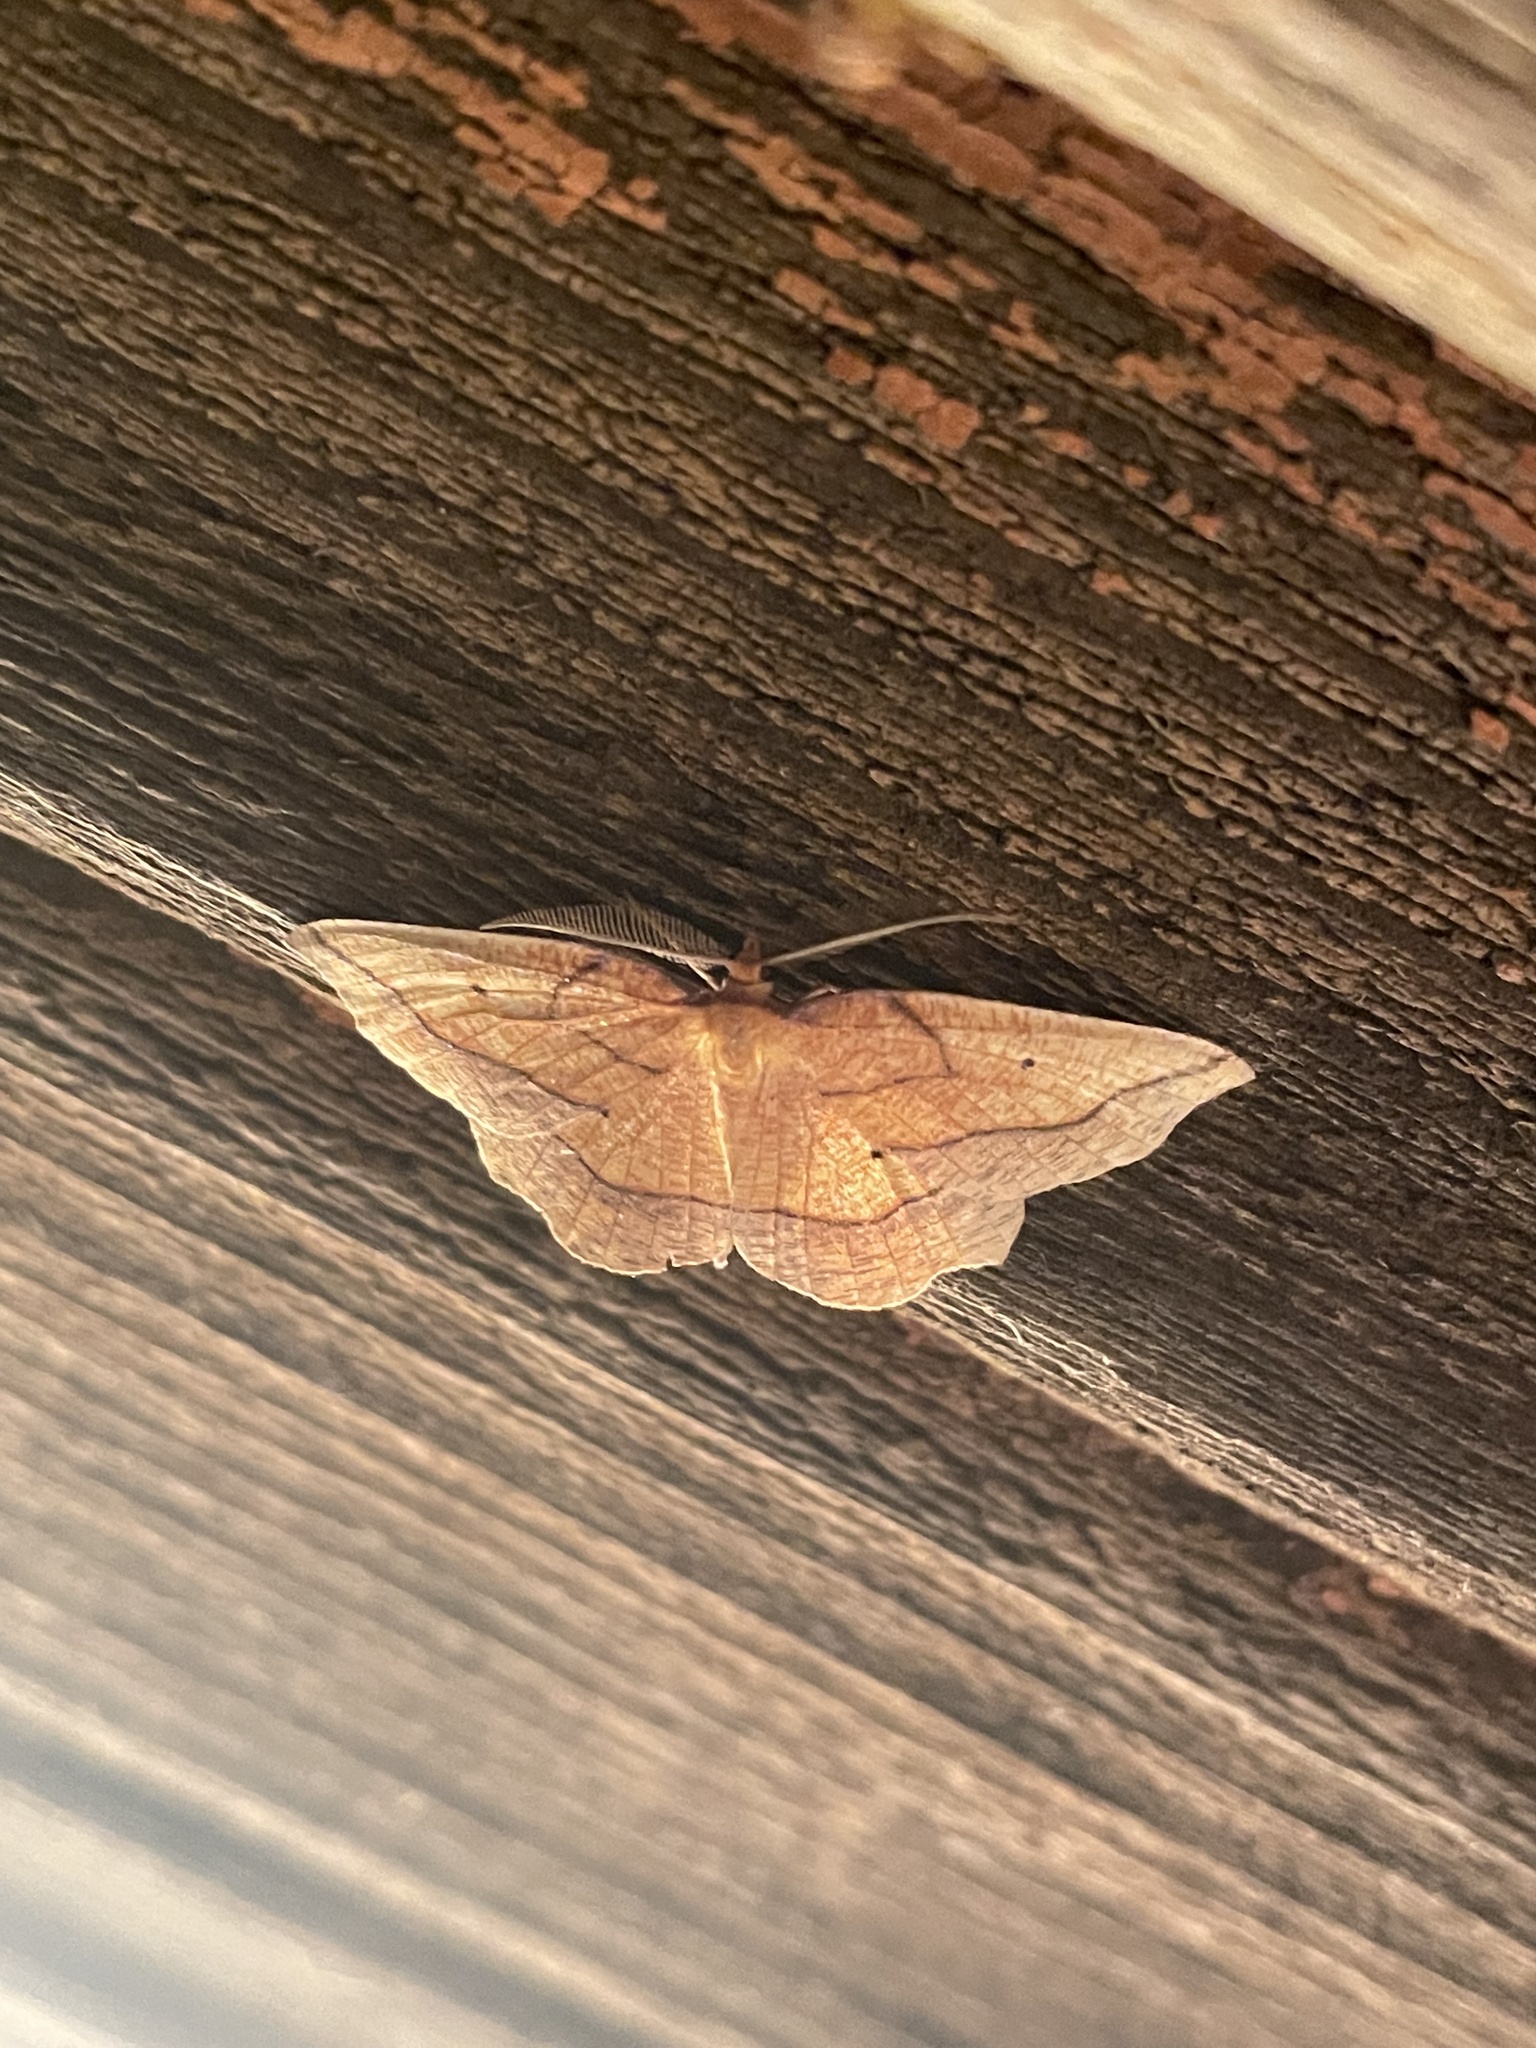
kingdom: Animalia
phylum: Arthropoda
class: Insecta
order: Lepidoptera
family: Geometridae
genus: Epione
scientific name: Epione repandaria
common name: Bordered beauty
